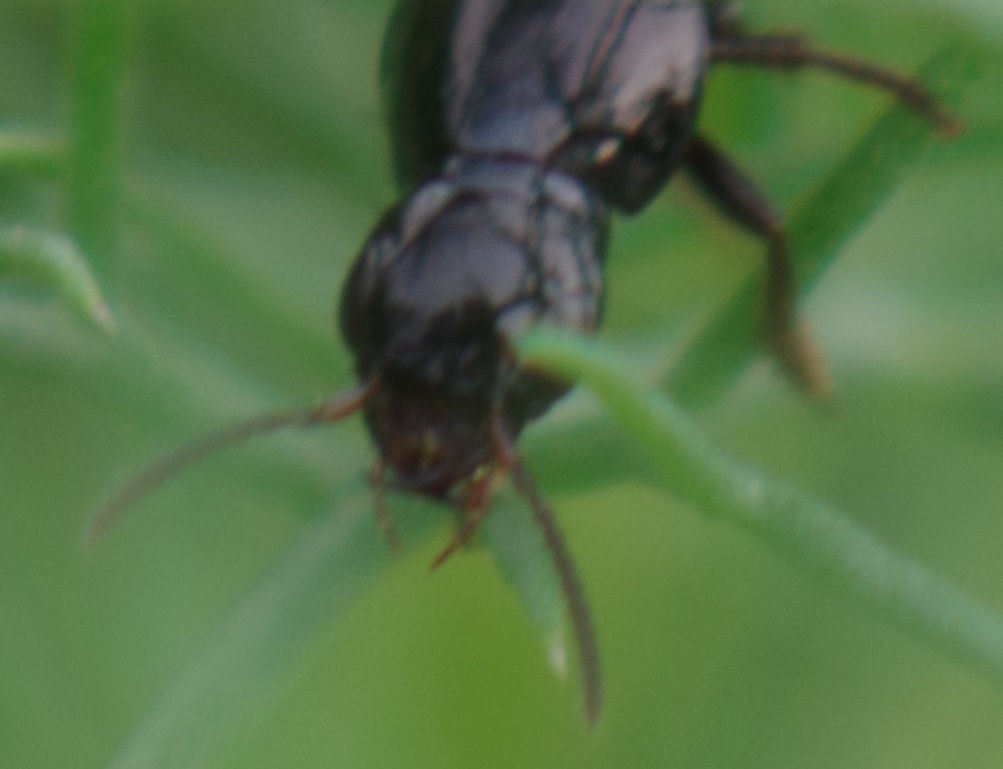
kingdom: Animalia
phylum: Arthropoda
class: Insecta
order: Coleoptera
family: Staphylinidae
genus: Quedius
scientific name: Quedius lateralis
